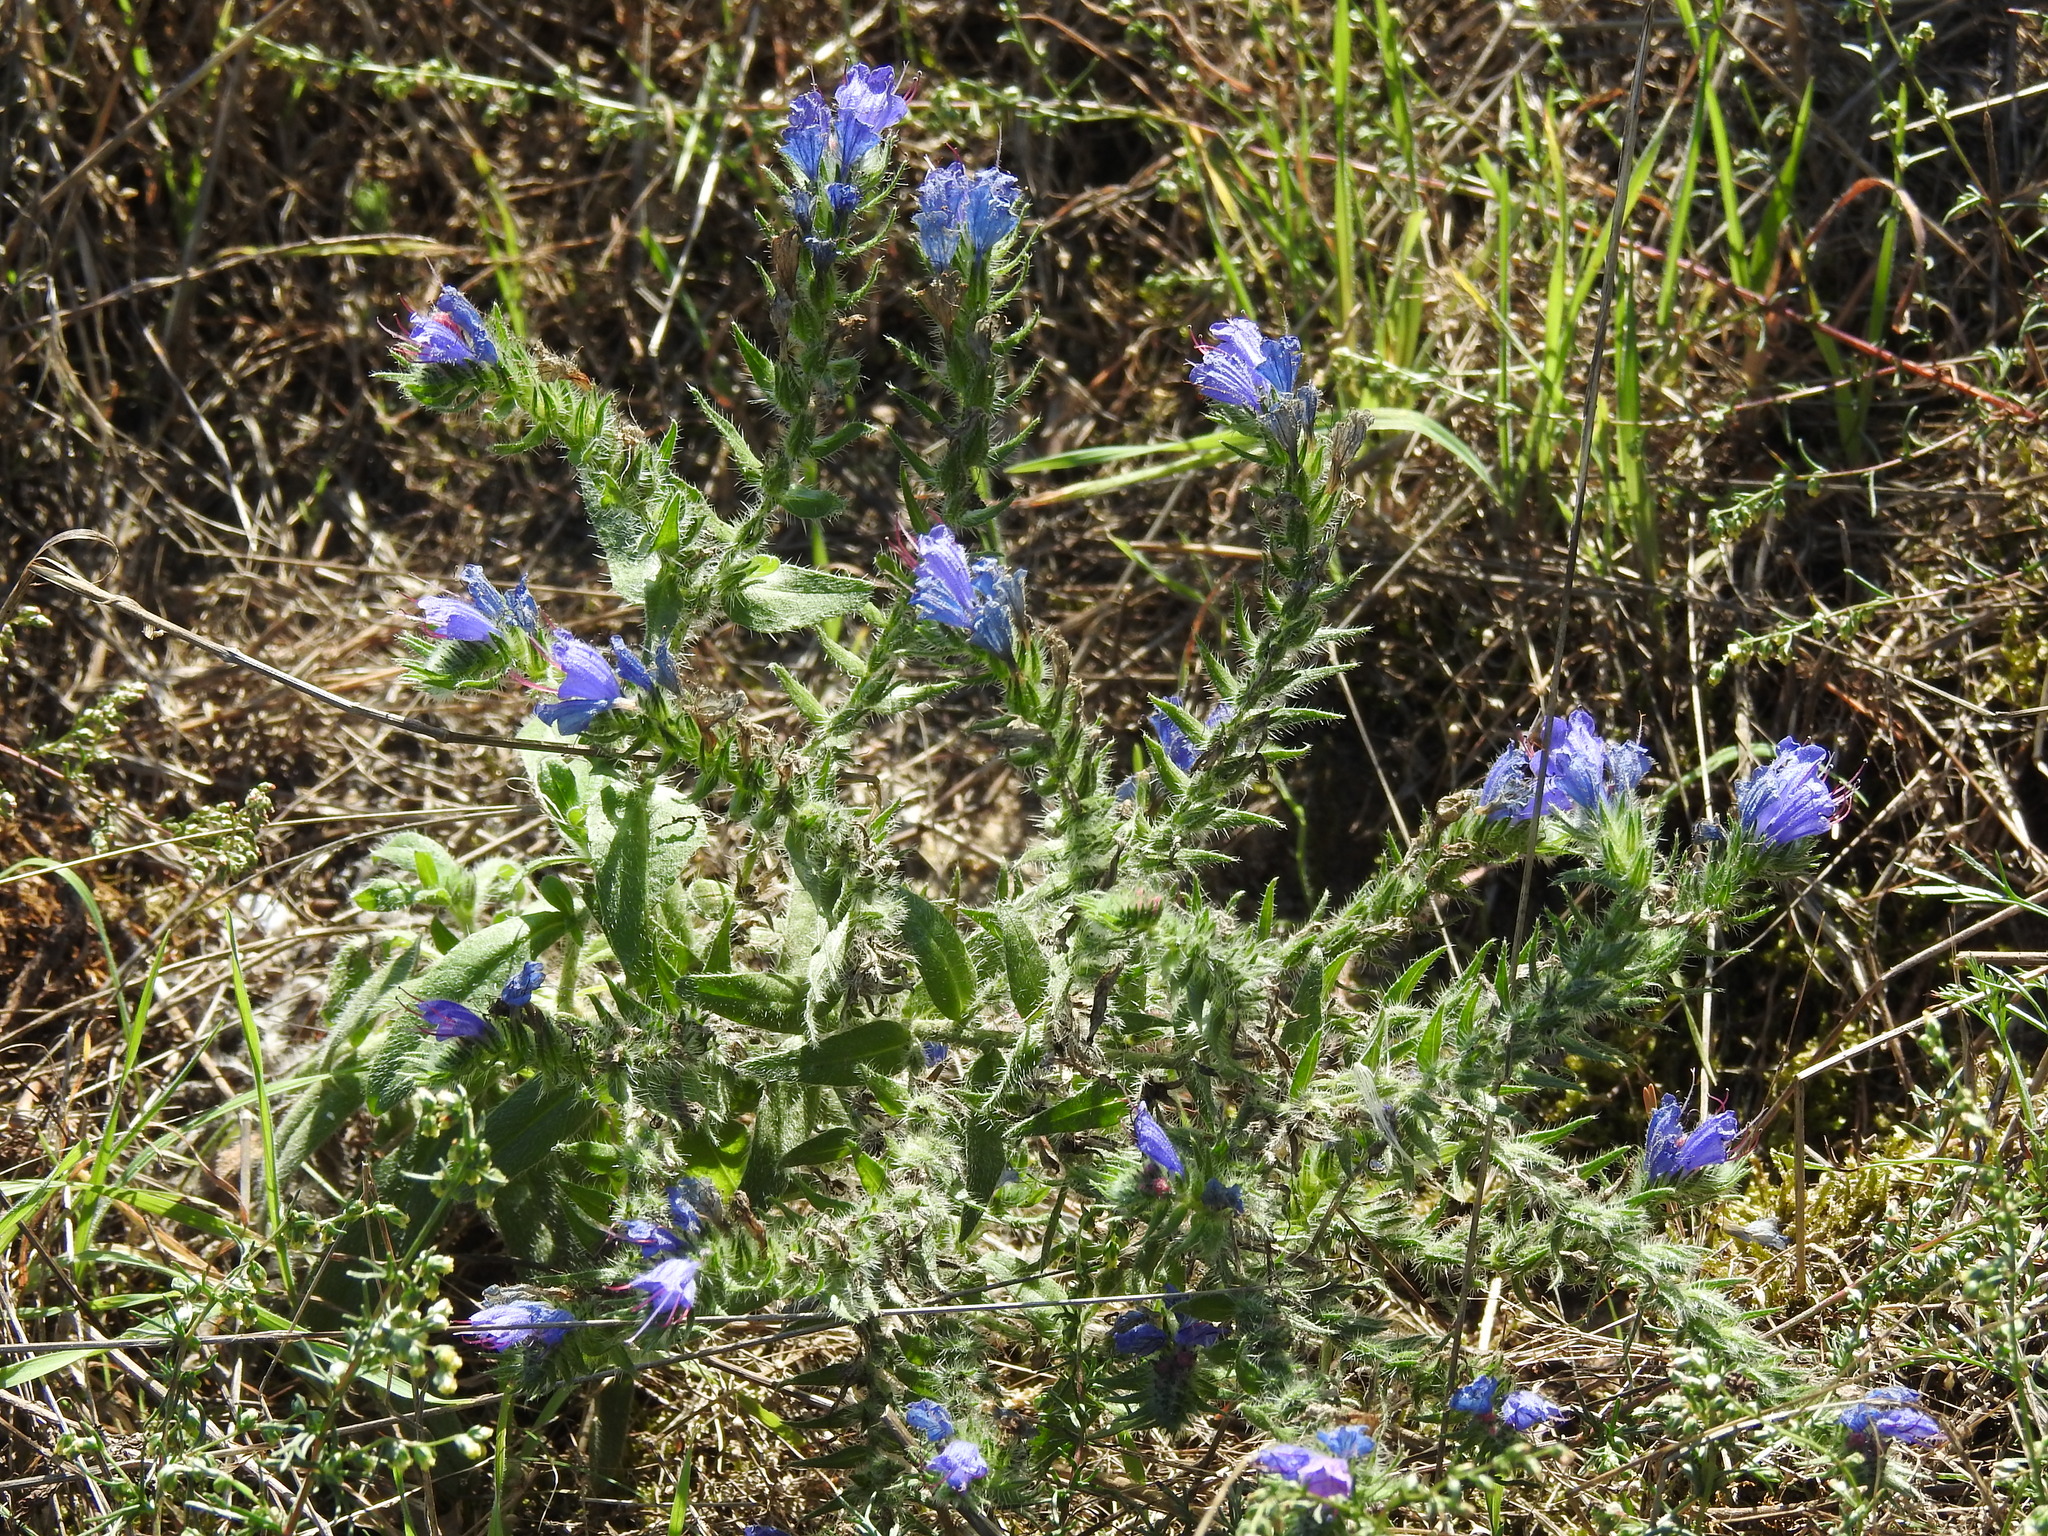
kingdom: Plantae
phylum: Tracheophyta
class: Magnoliopsida
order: Boraginales
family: Boraginaceae
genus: Echium
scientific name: Echium vulgare
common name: Common viper's bugloss
